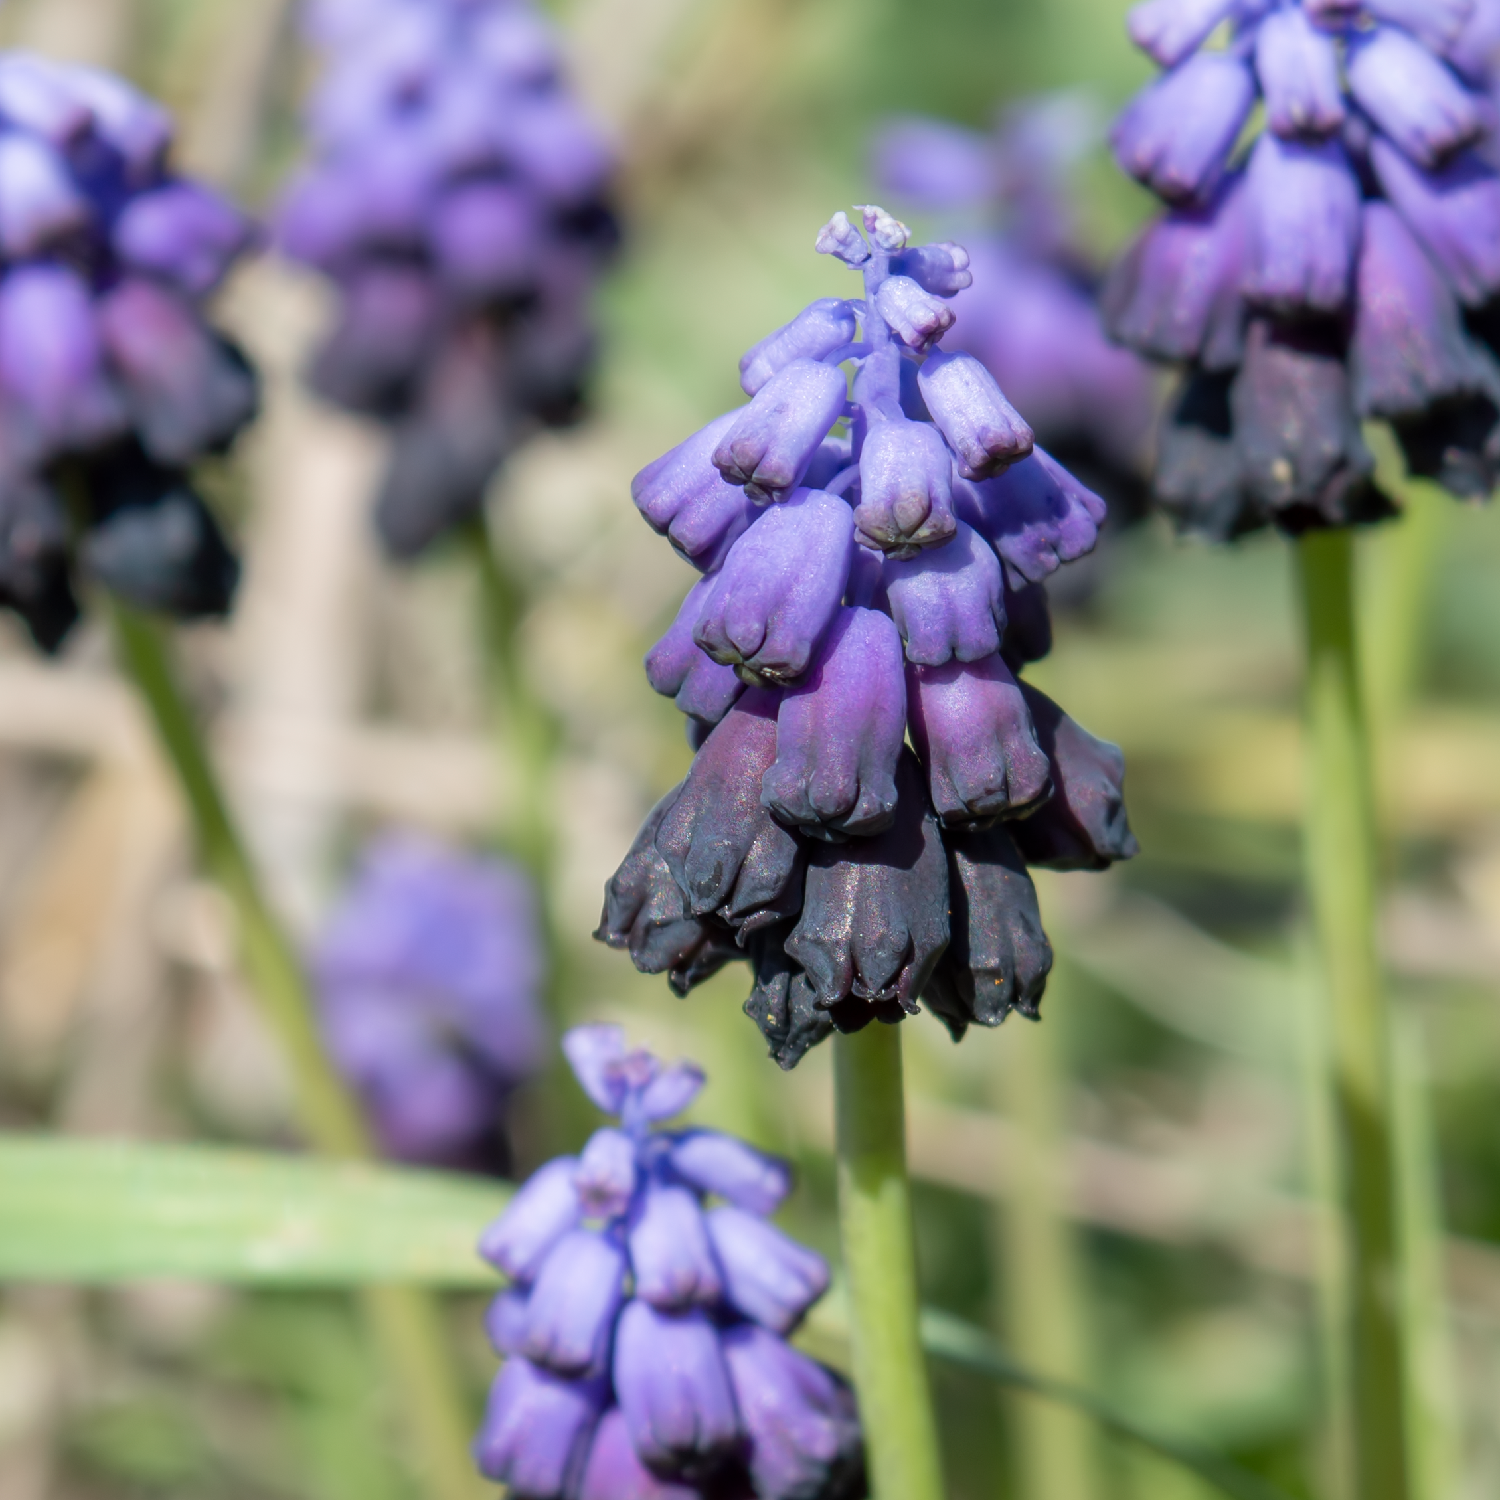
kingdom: Plantae
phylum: Tracheophyta
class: Liliopsida
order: Asparagales
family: Asparagaceae
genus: Muscari
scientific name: Muscari commutatum
